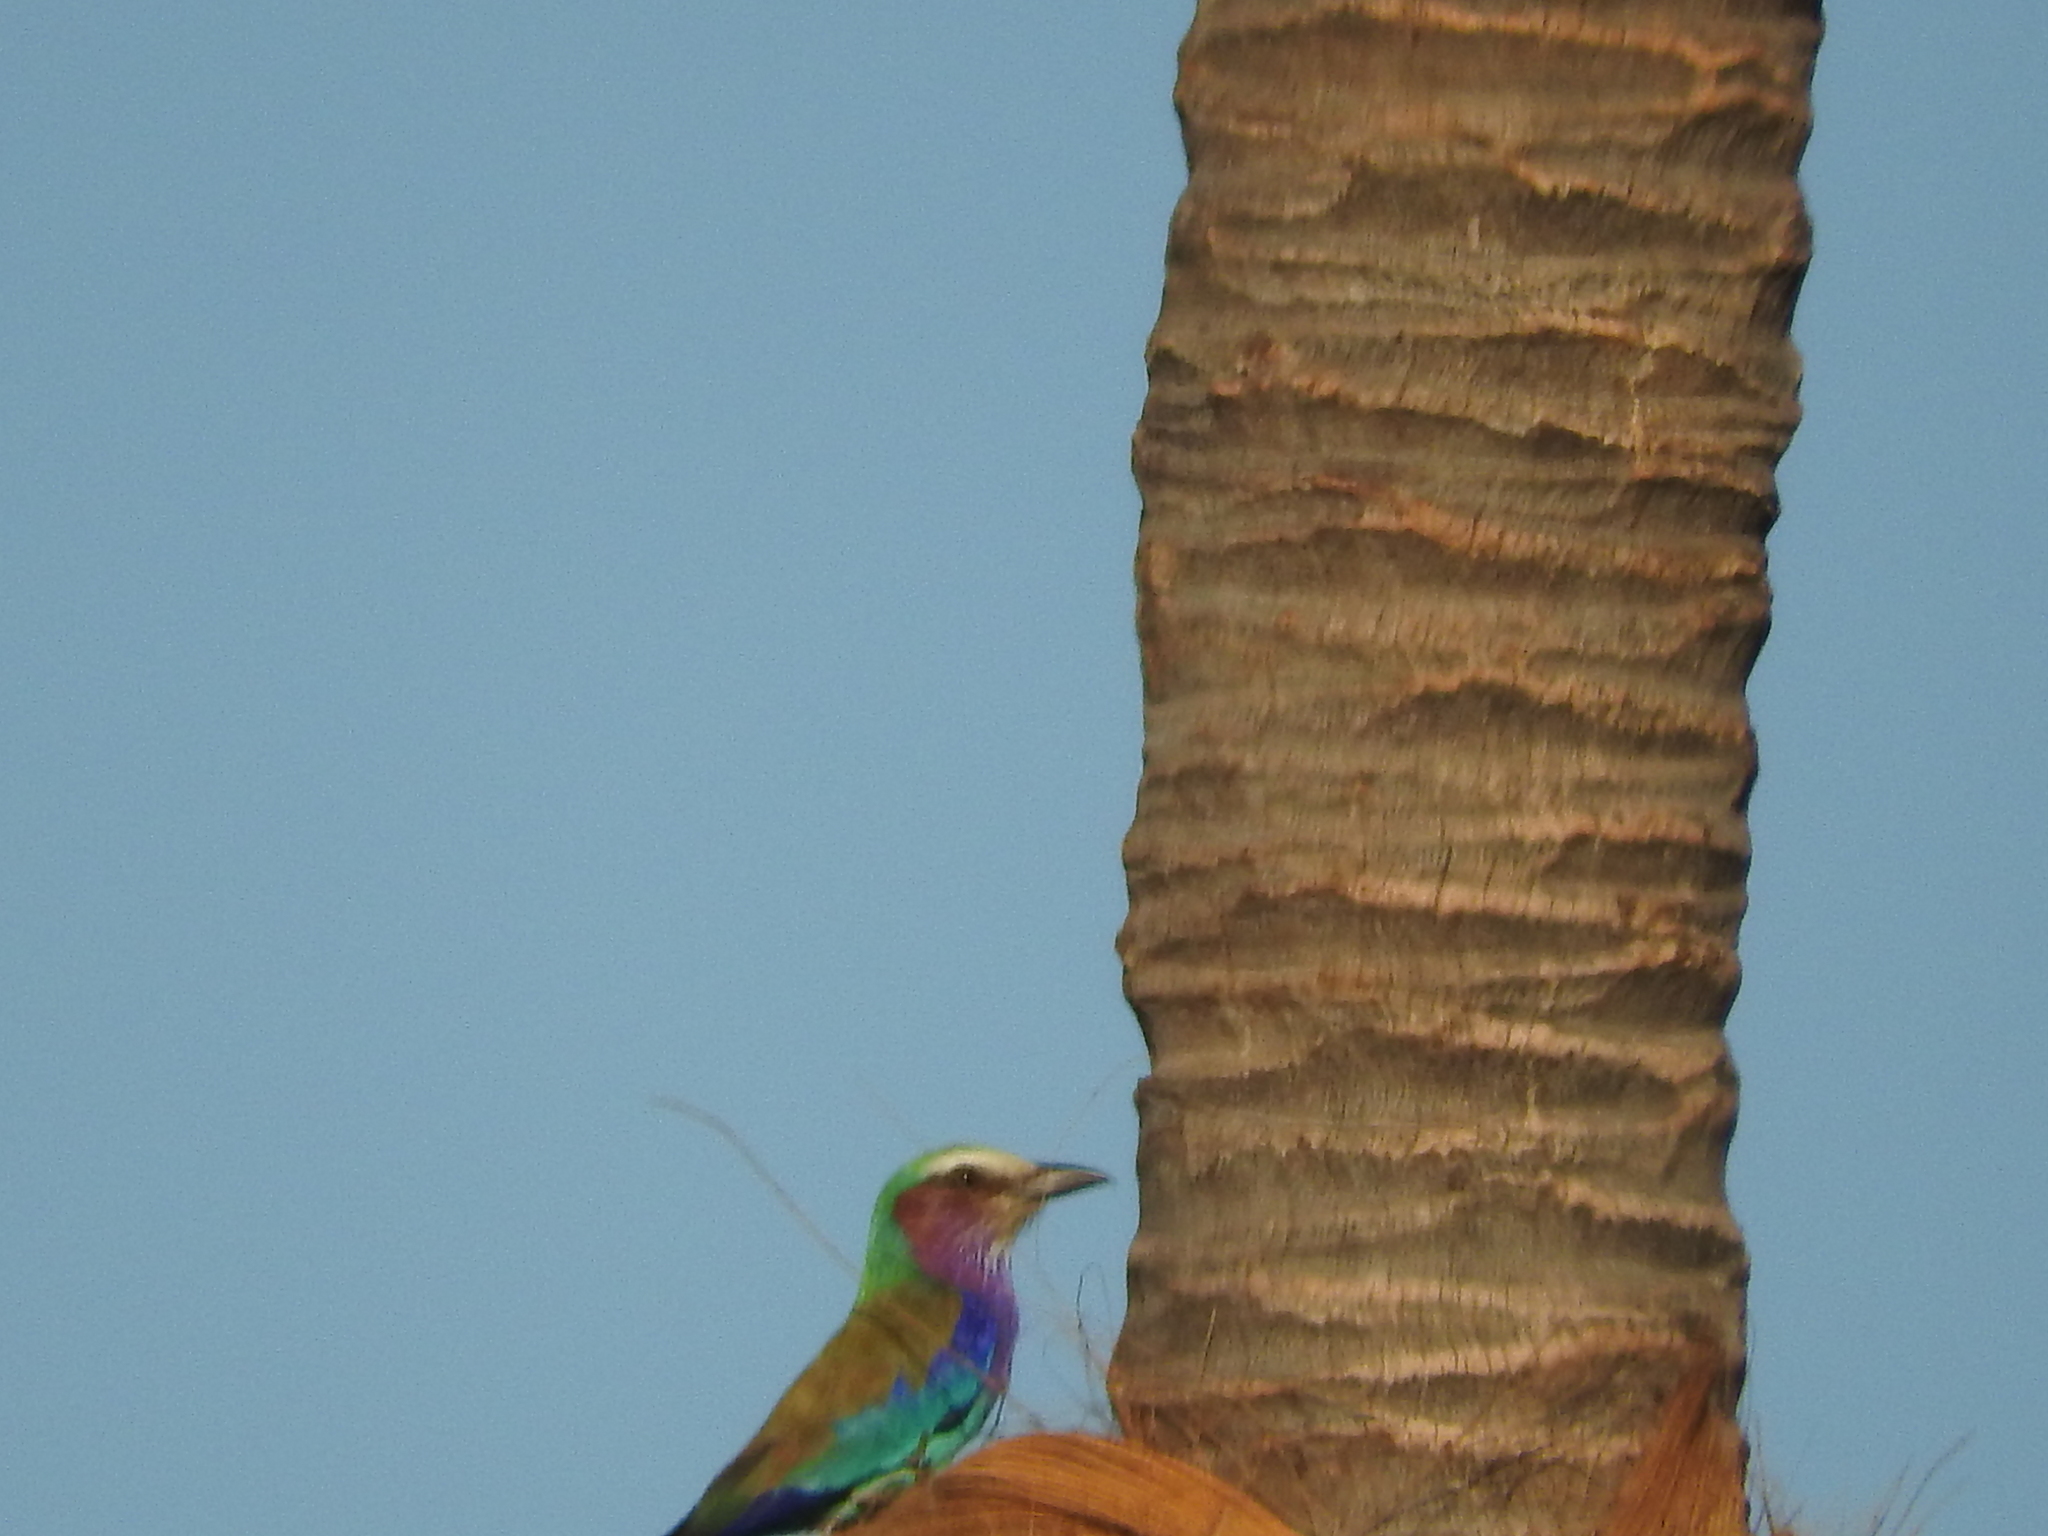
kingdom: Animalia
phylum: Chordata
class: Aves
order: Coraciiformes
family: Coraciidae
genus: Coracias
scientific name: Coracias caudatus
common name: Lilac-breasted roller
